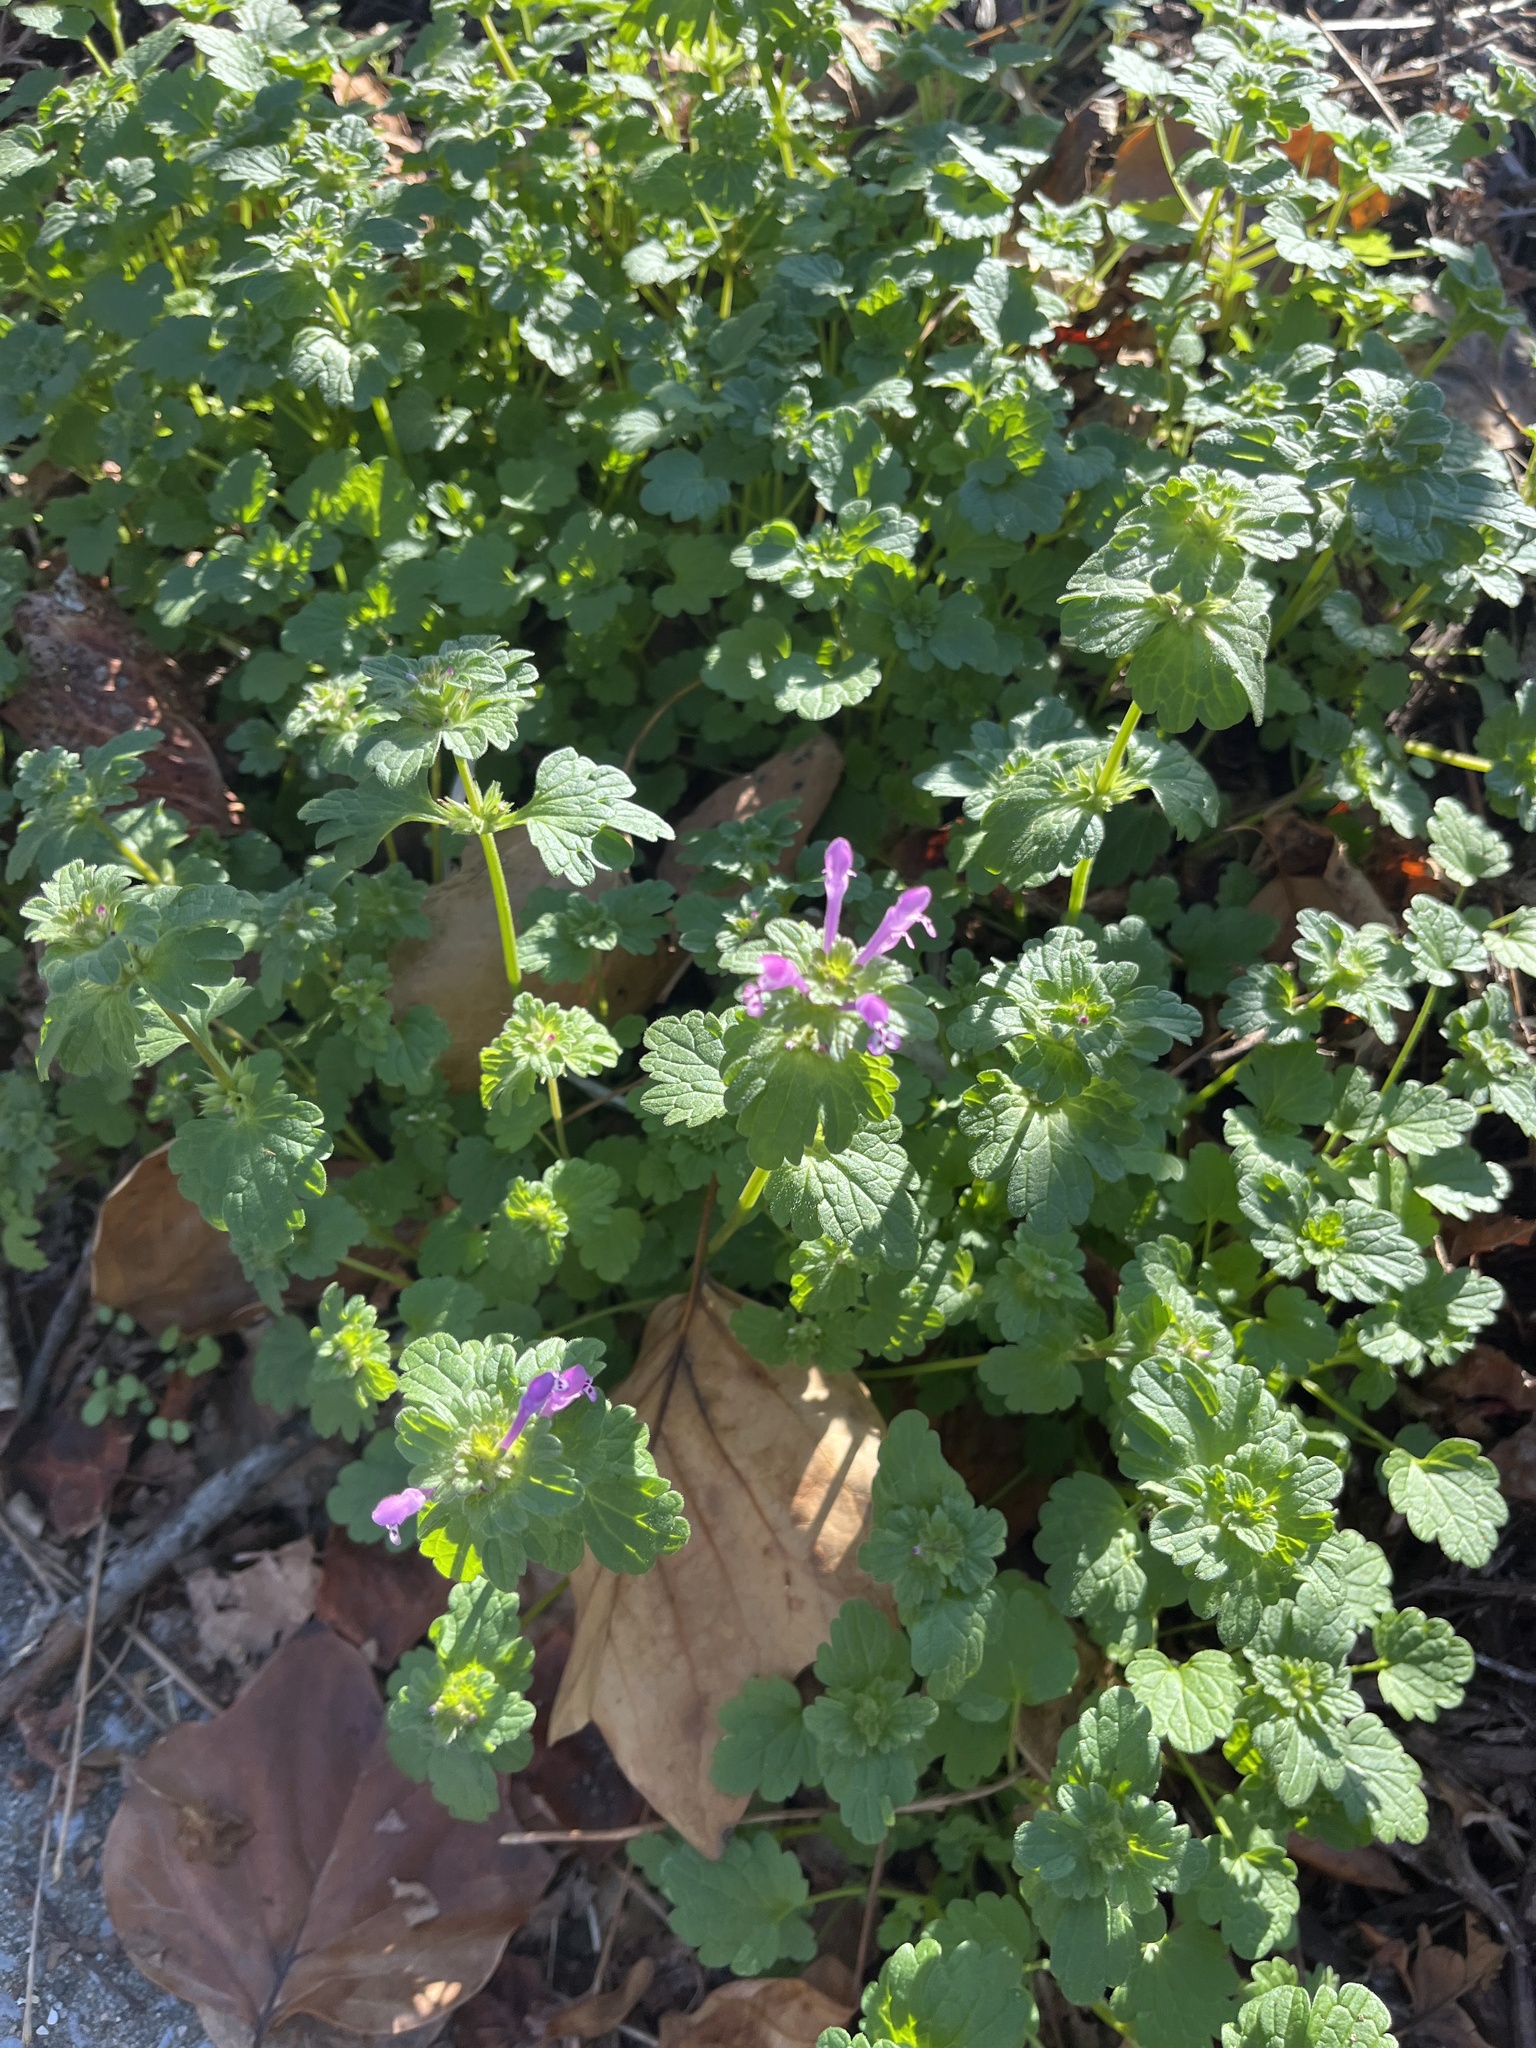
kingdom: Plantae
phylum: Tracheophyta
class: Magnoliopsida
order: Lamiales
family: Lamiaceae
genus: Lamium
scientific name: Lamium amplexicaule
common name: Henbit dead-nettle
